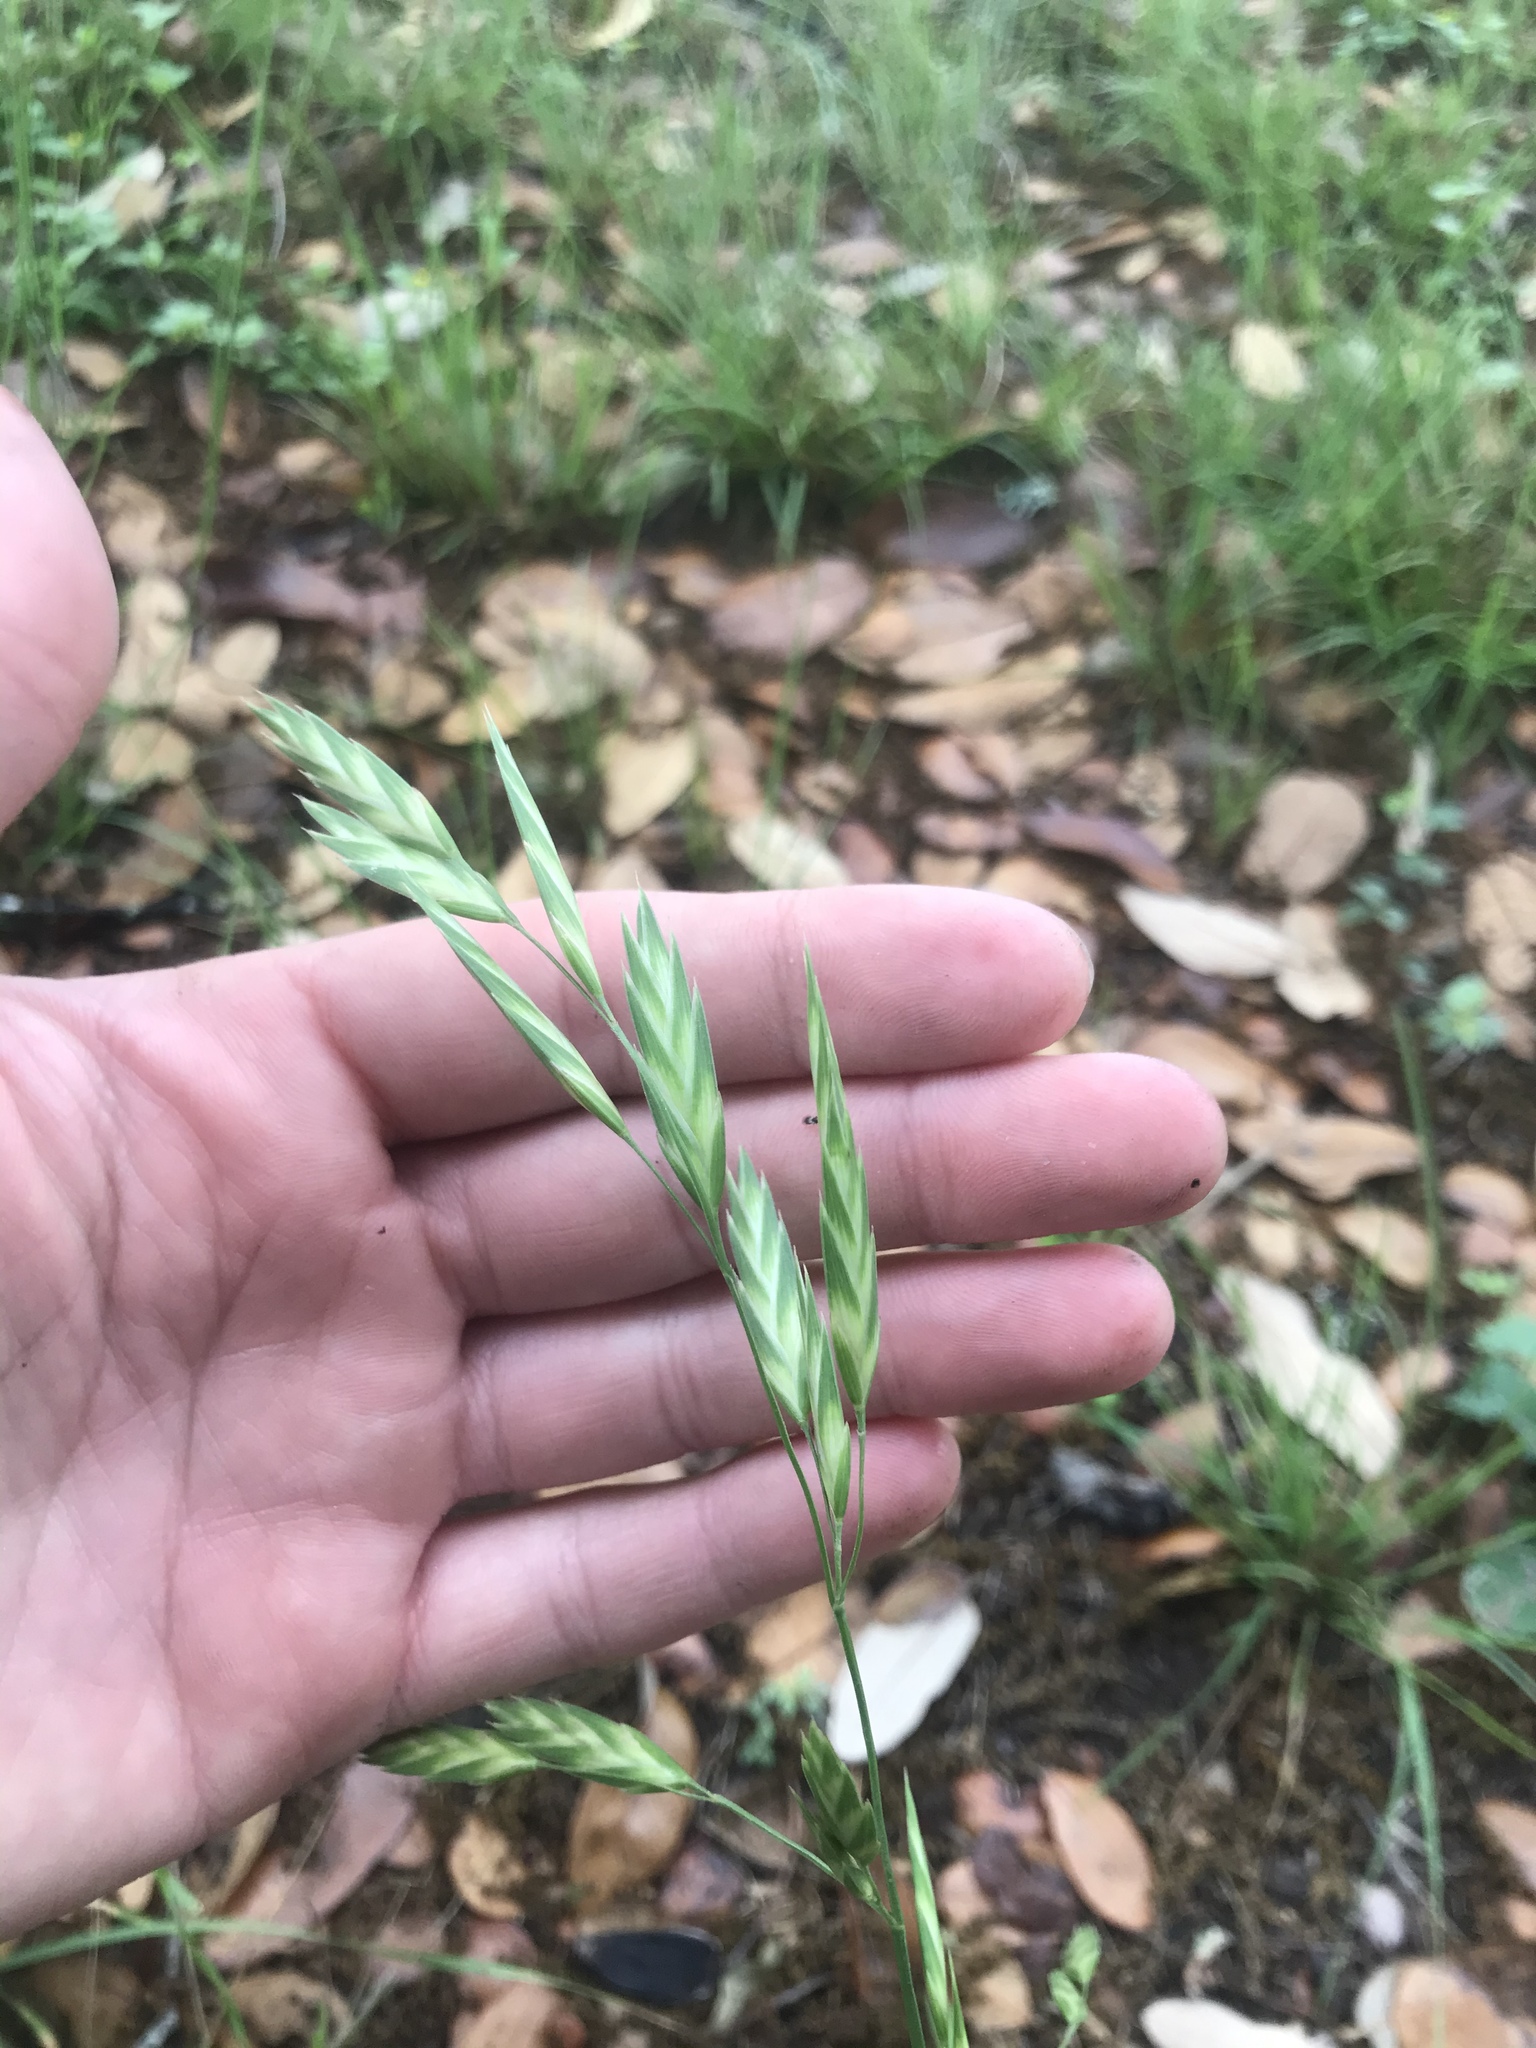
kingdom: Plantae
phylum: Tracheophyta
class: Liliopsida
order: Poales
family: Poaceae
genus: Bromus
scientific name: Bromus catharticus
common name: Rescuegrass
